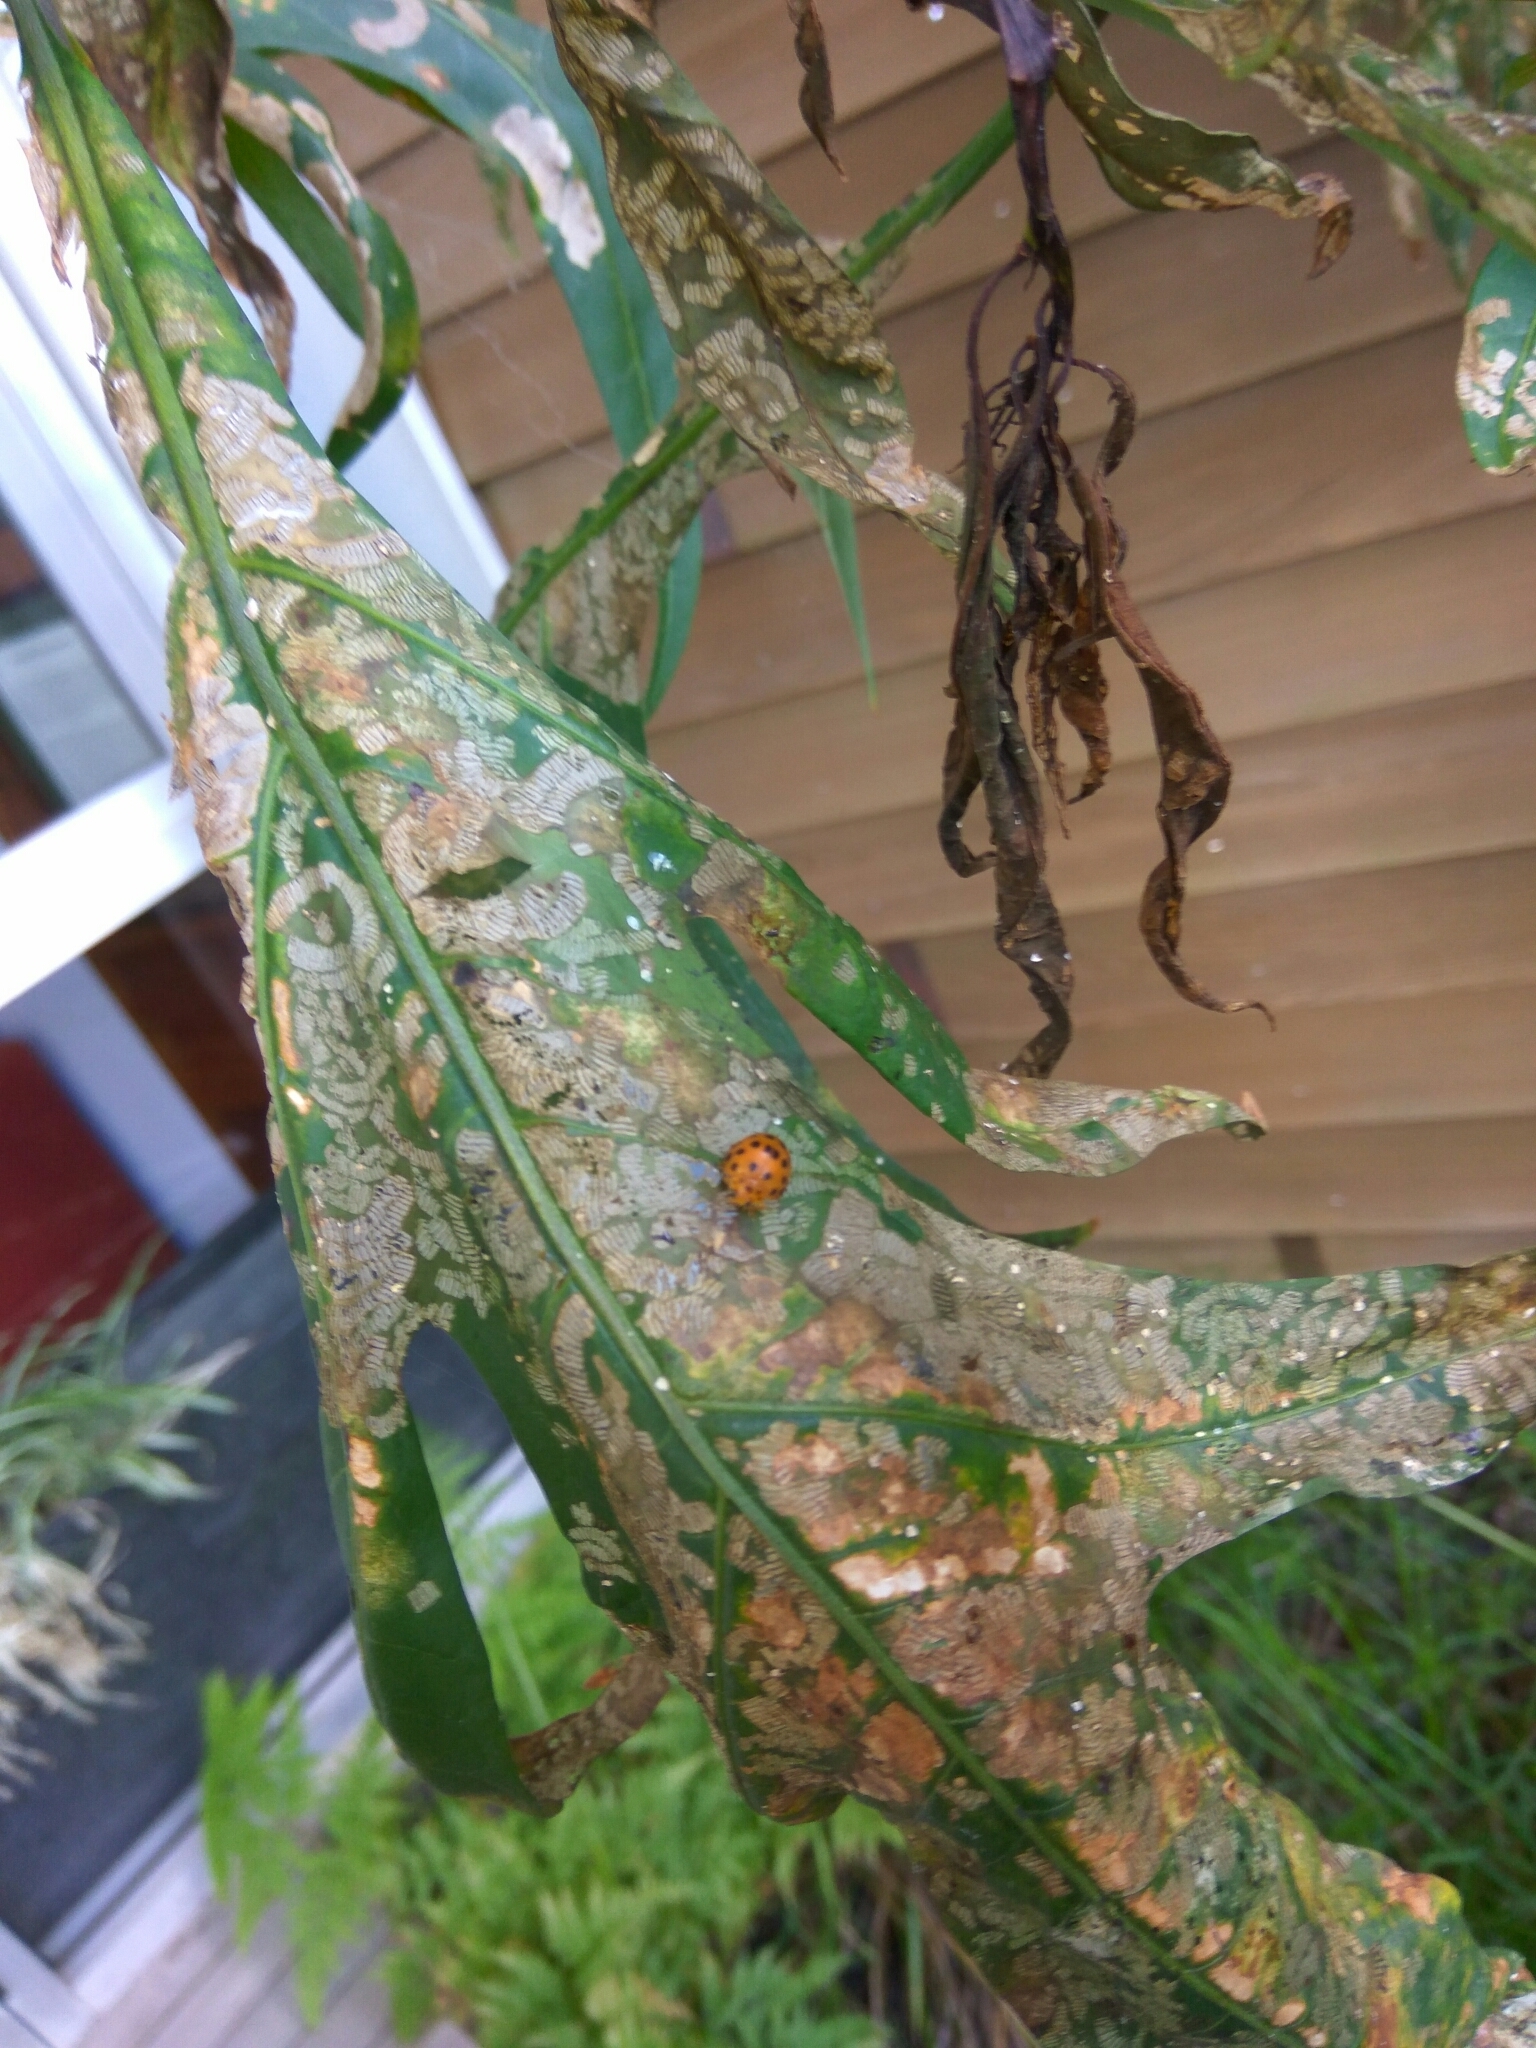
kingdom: Animalia
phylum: Arthropoda
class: Insecta
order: Coleoptera
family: Coccinellidae
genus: Henosepilachna
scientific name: Henosepilachna vigintioctopunctata
